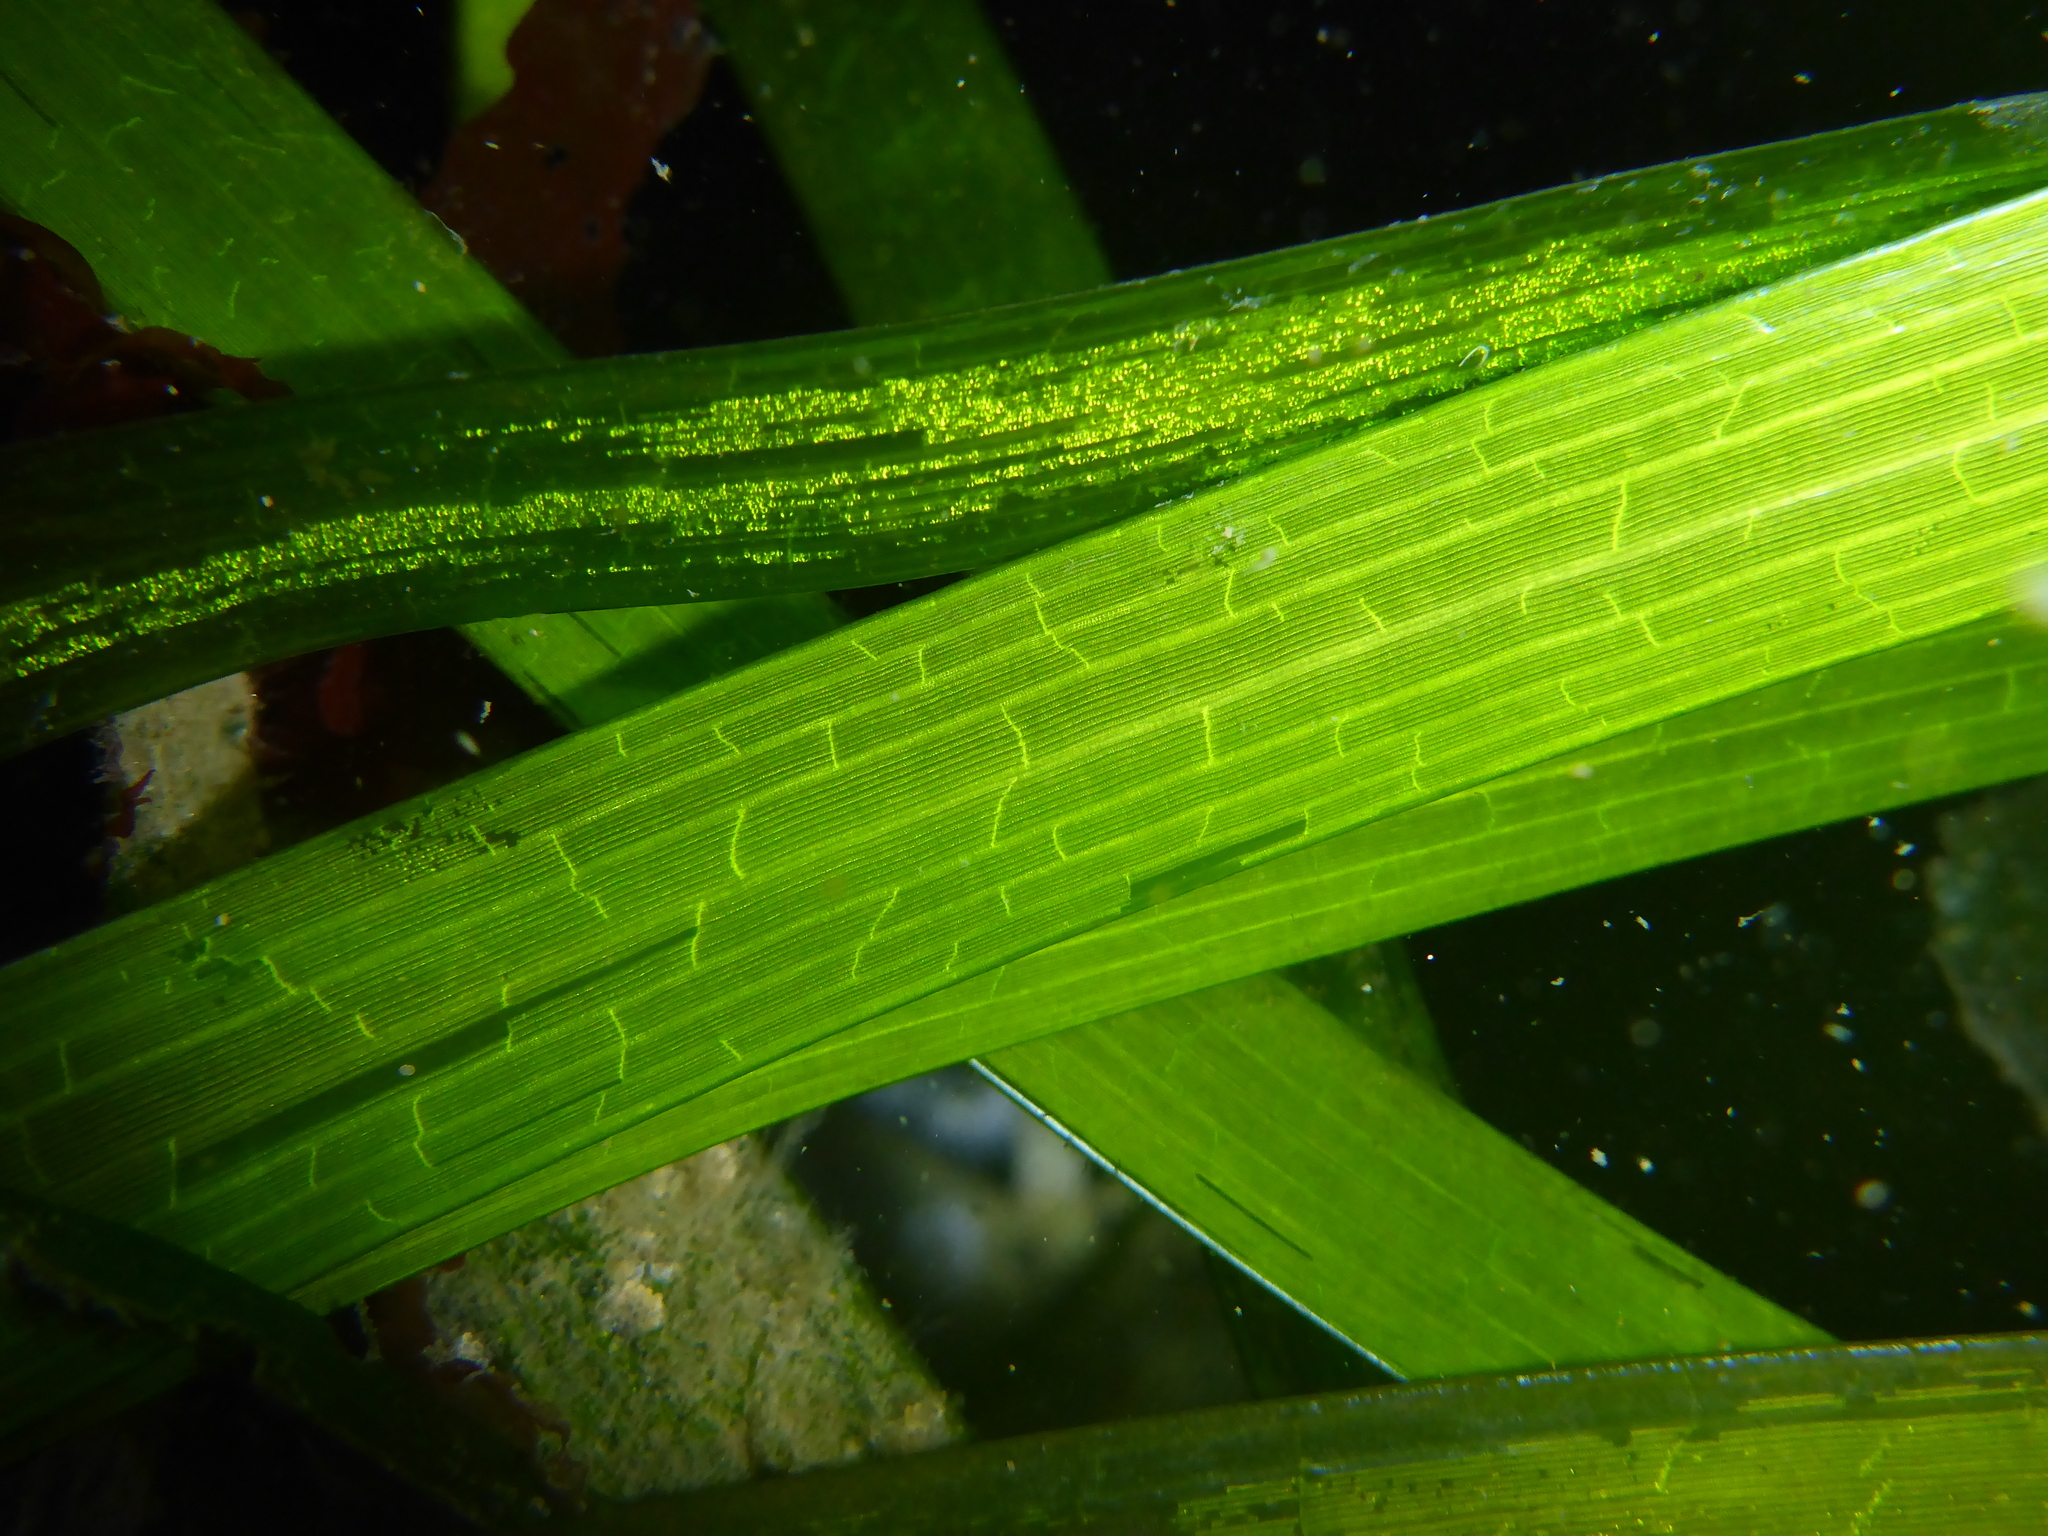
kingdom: Plantae
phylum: Tracheophyta
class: Liliopsida
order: Alismatales
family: Zosteraceae
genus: Zostera
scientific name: Zostera marina
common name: Eelgrass
